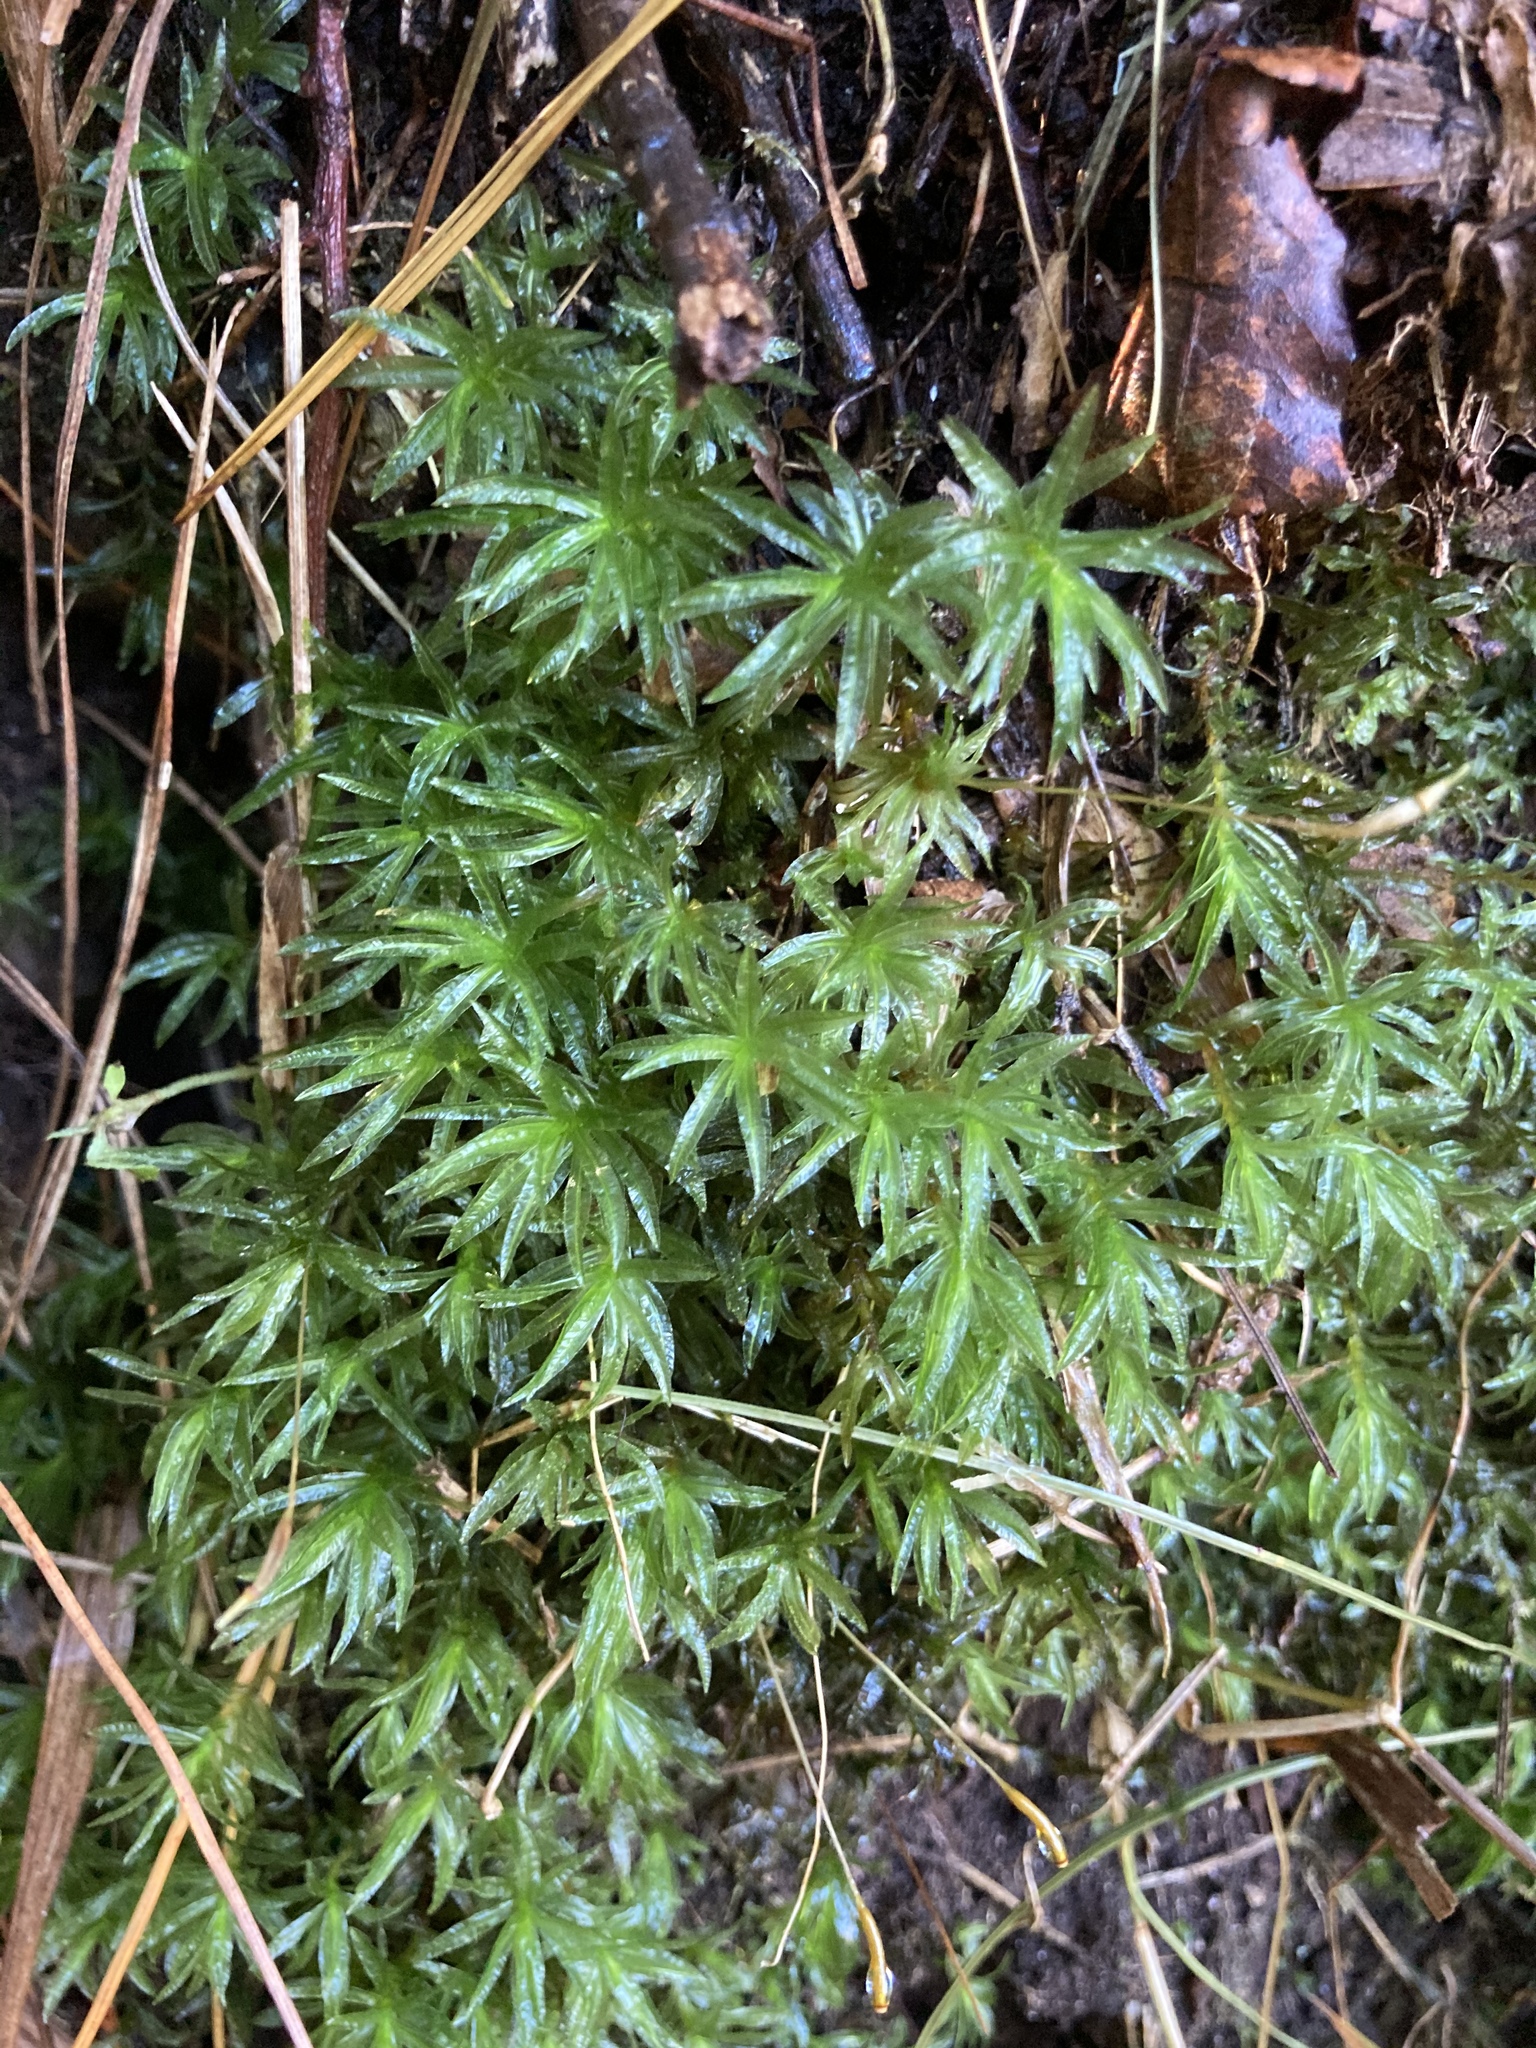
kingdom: Plantae
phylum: Bryophyta
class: Polytrichopsida
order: Polytrichales
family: Polytrichaceae
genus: Atrichum
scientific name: Atrichum androgynum
